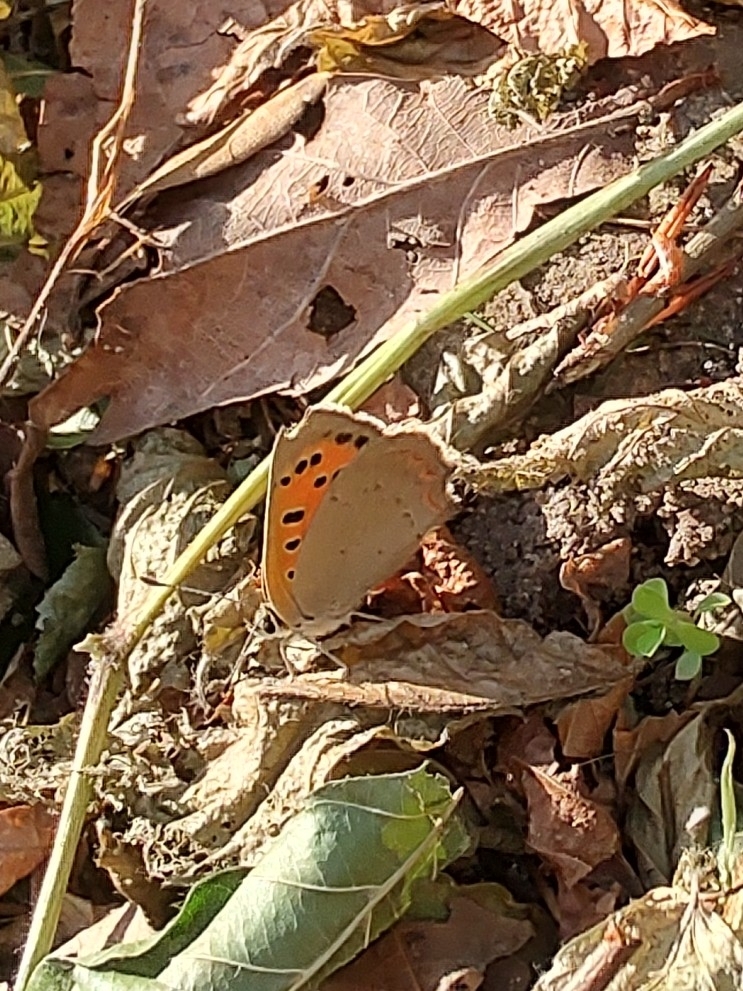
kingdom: Animalia
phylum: Arthropoda
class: Insecta
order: Lepidoptera
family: Lycaenidae
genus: Lycaena
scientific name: Lycaena phlaeas
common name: Small copper
